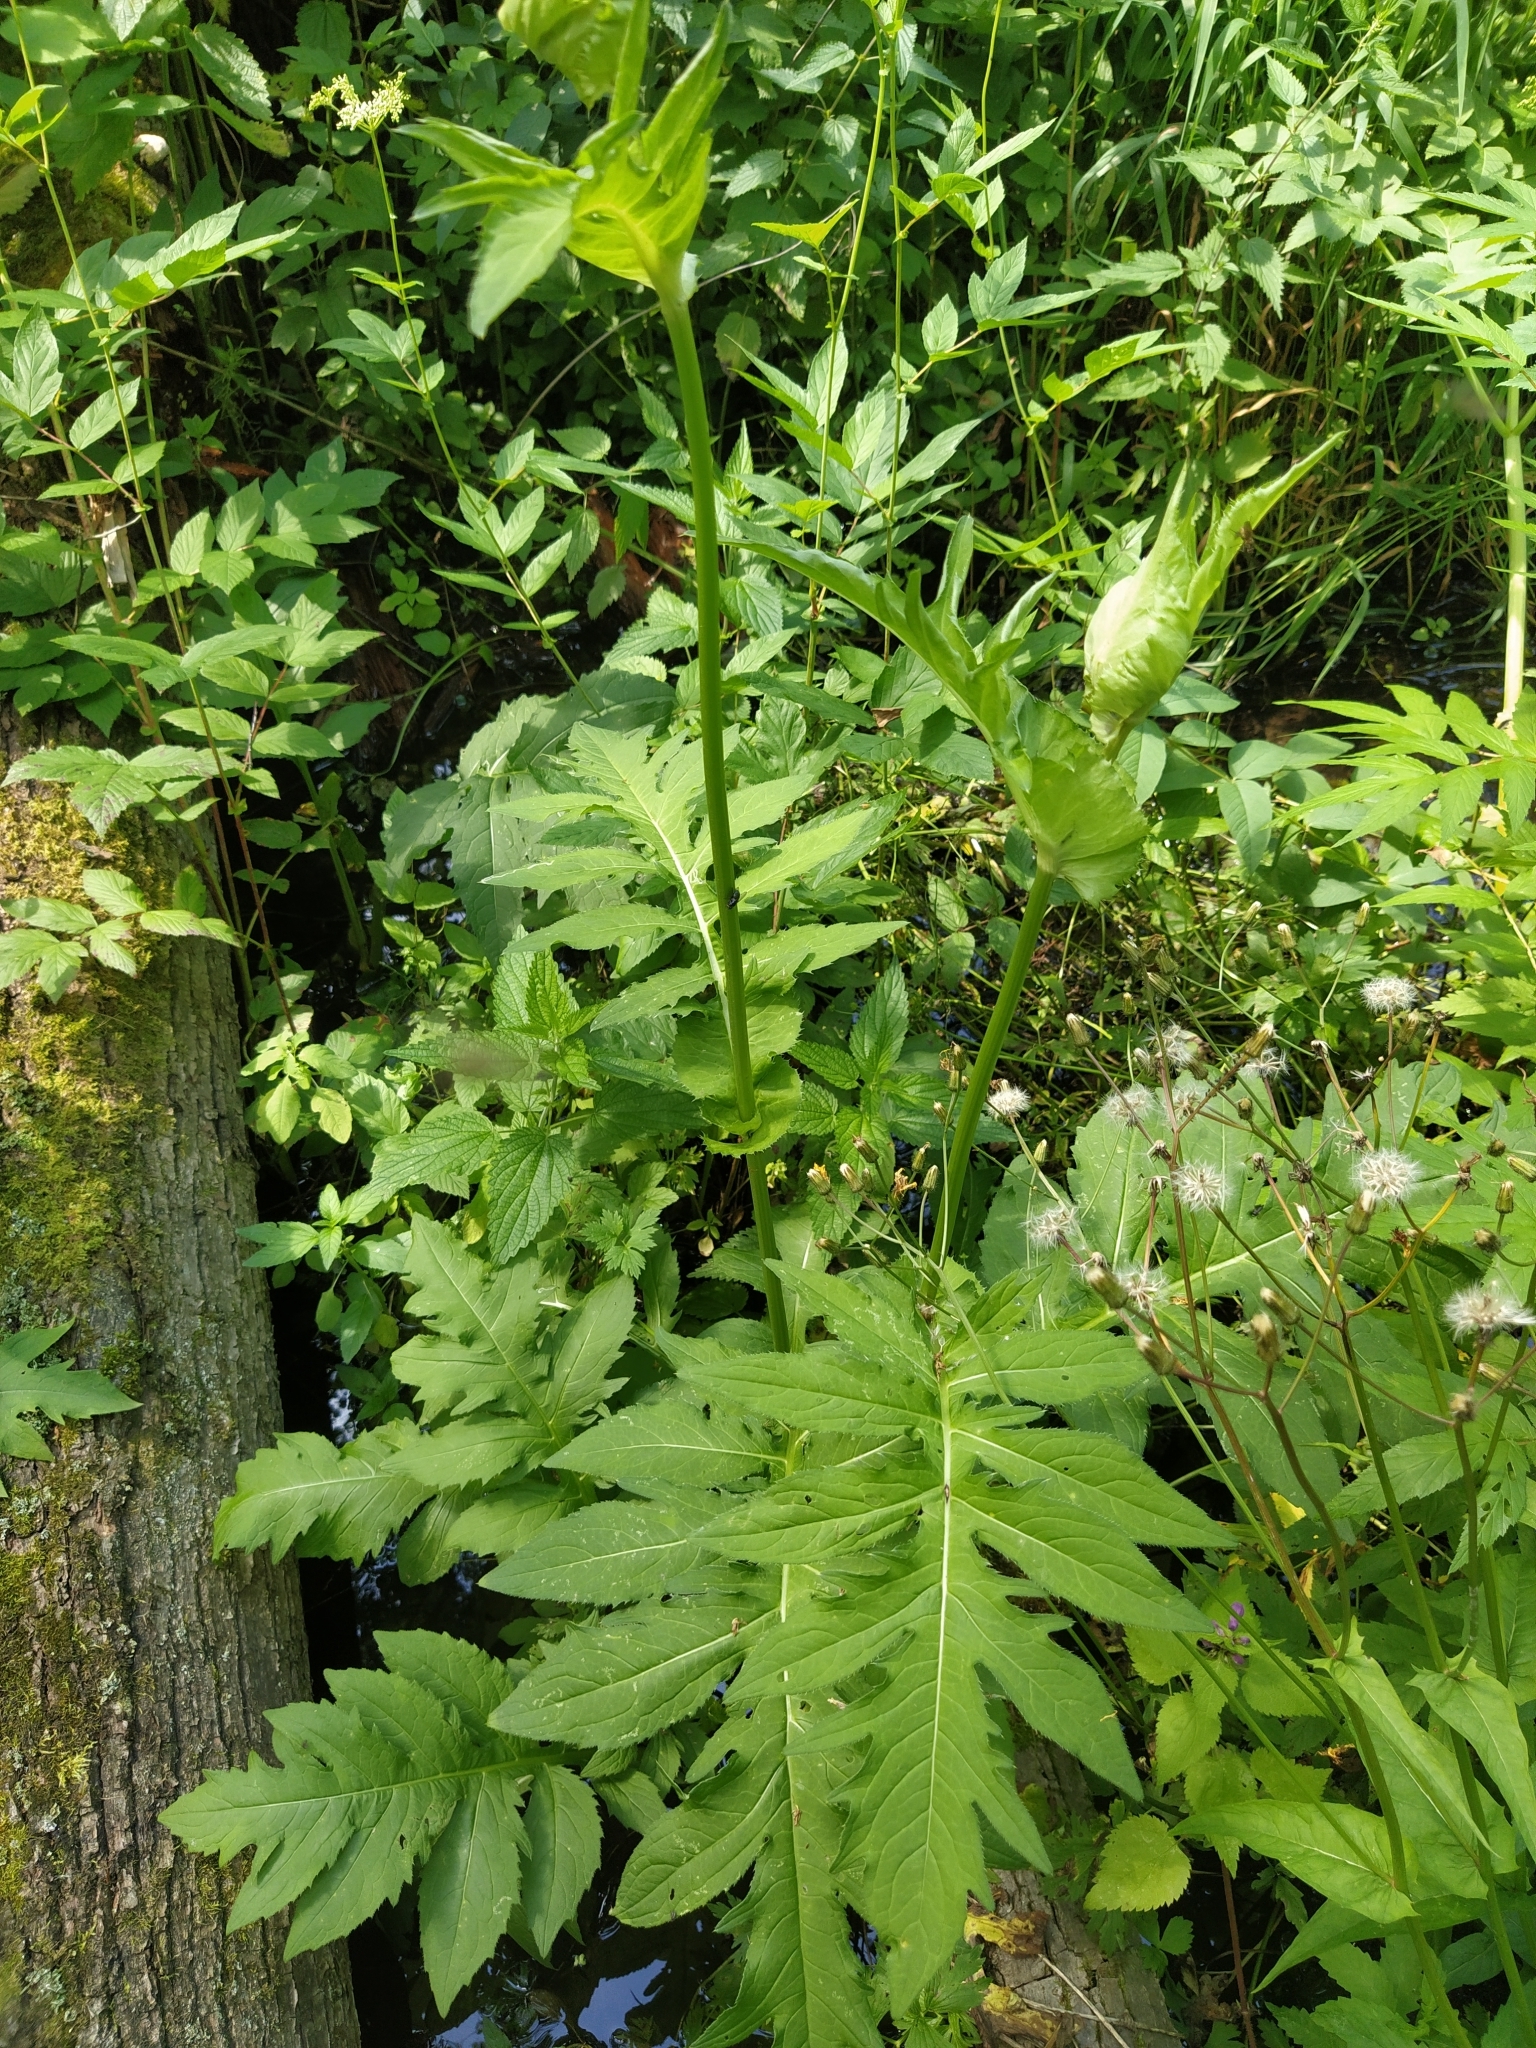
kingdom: Plantae
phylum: Tracheophyta
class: Magnoliopsida
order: Asterales
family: Asteraceae
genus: Cirsium
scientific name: Cirsium oleraceum
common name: Cabbage thistle
